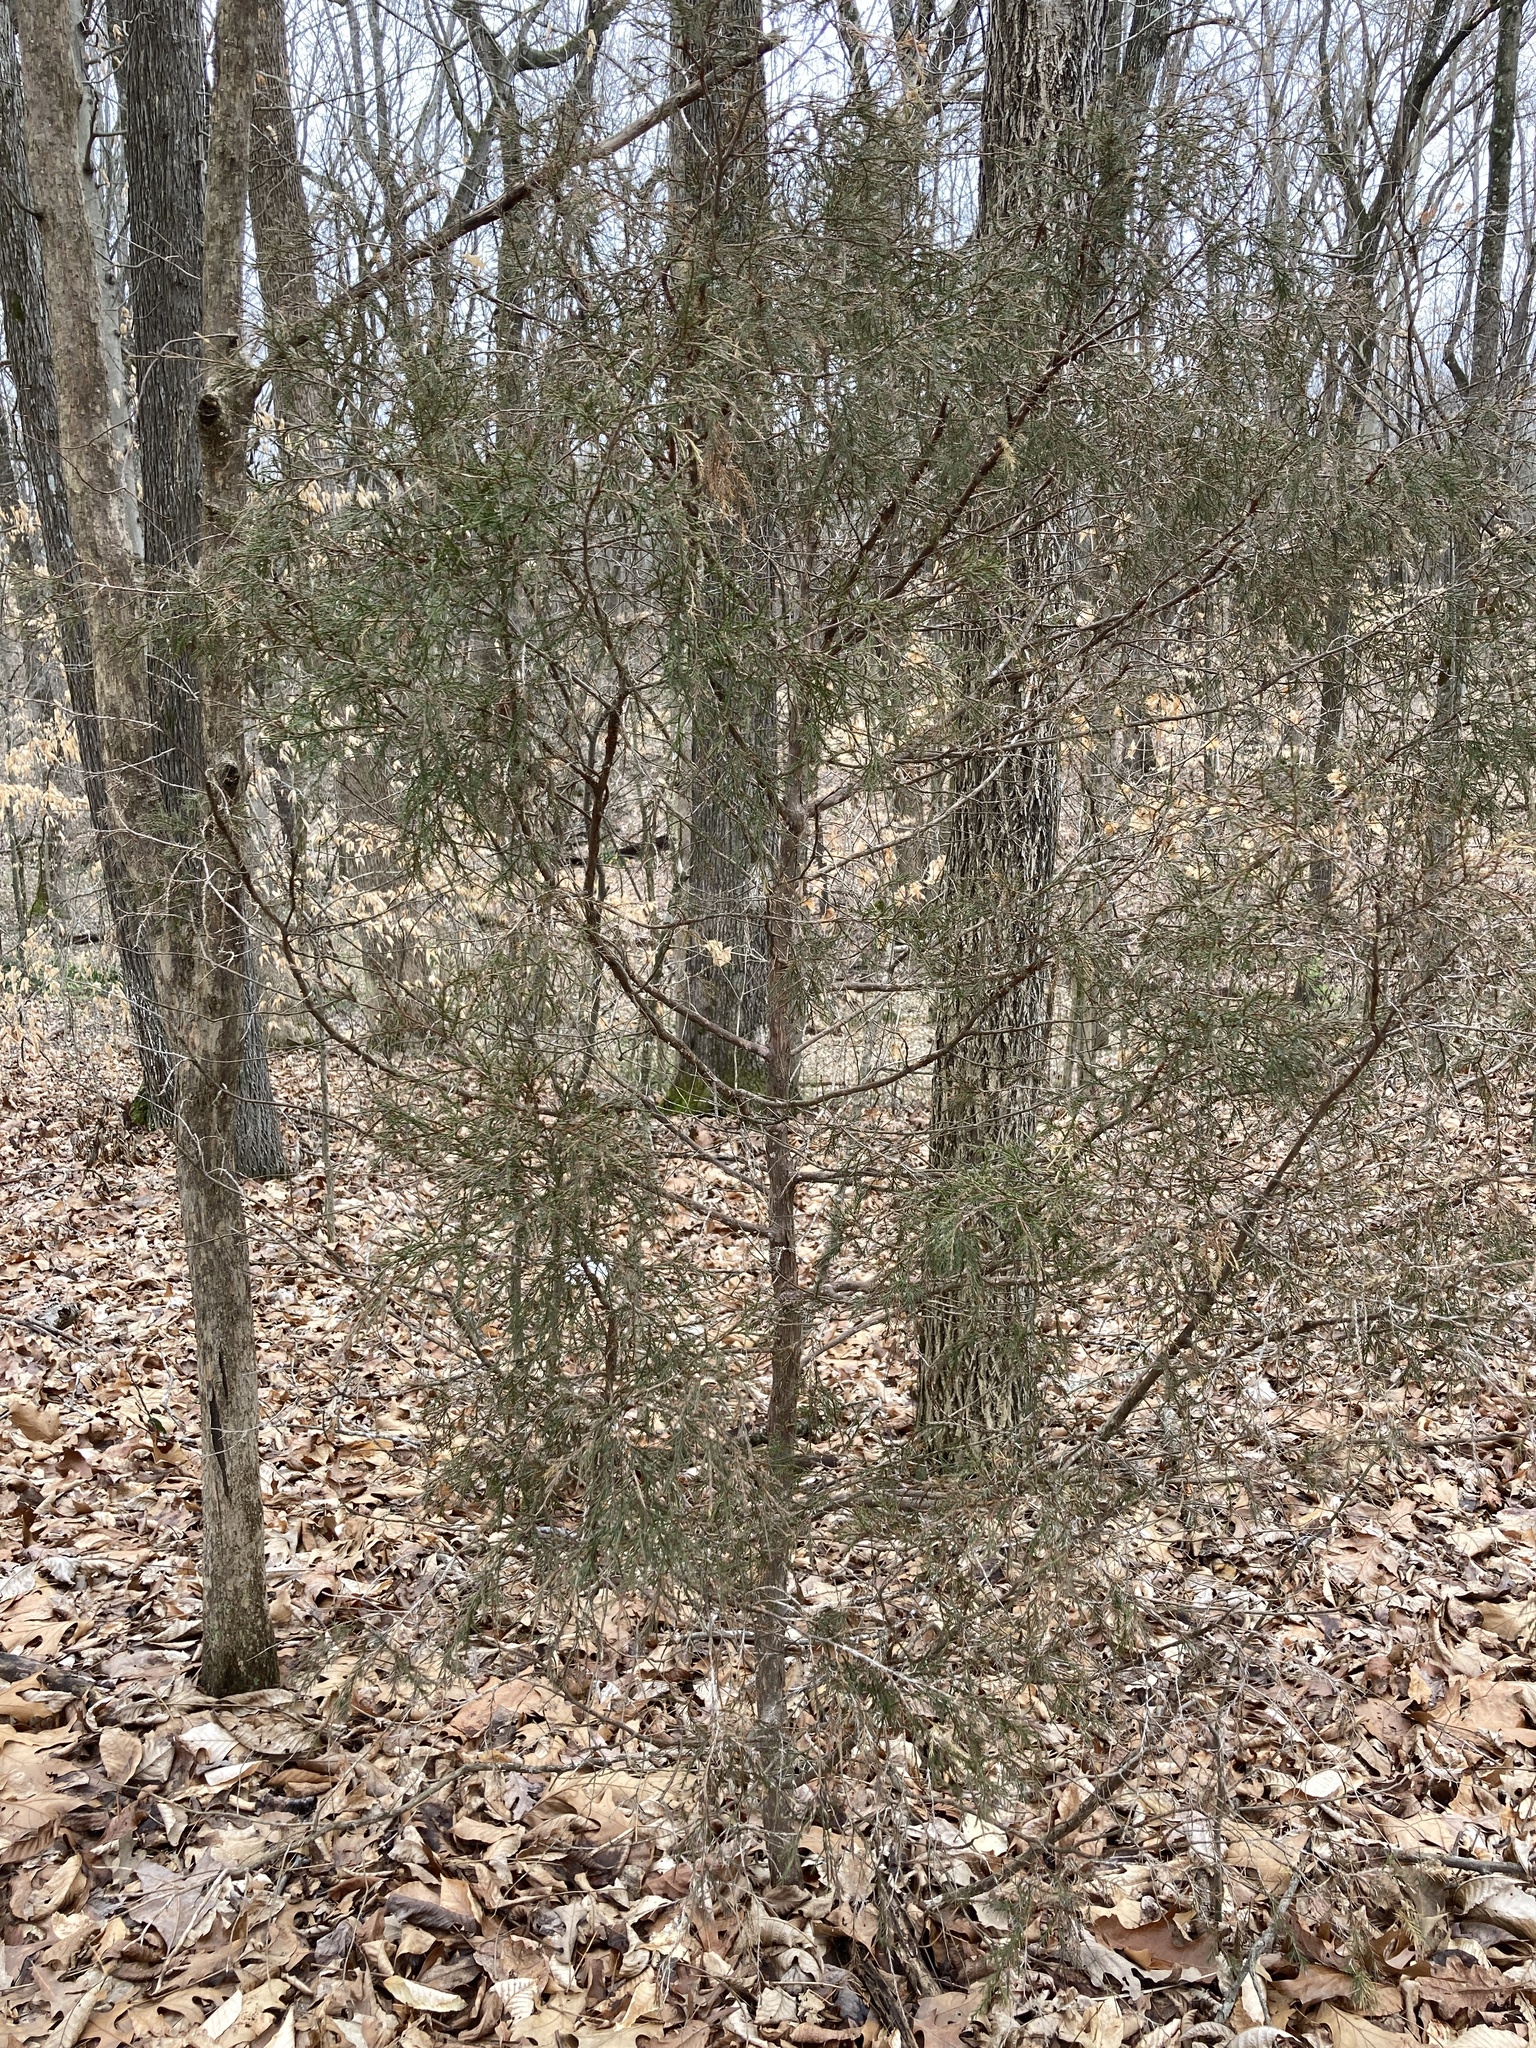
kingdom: Plantae
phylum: Tracheophyta
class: Pinopsida
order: Pinales
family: Cupressaceae
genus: Juniperus
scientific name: Juniperus virginiana
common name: Red juniper
